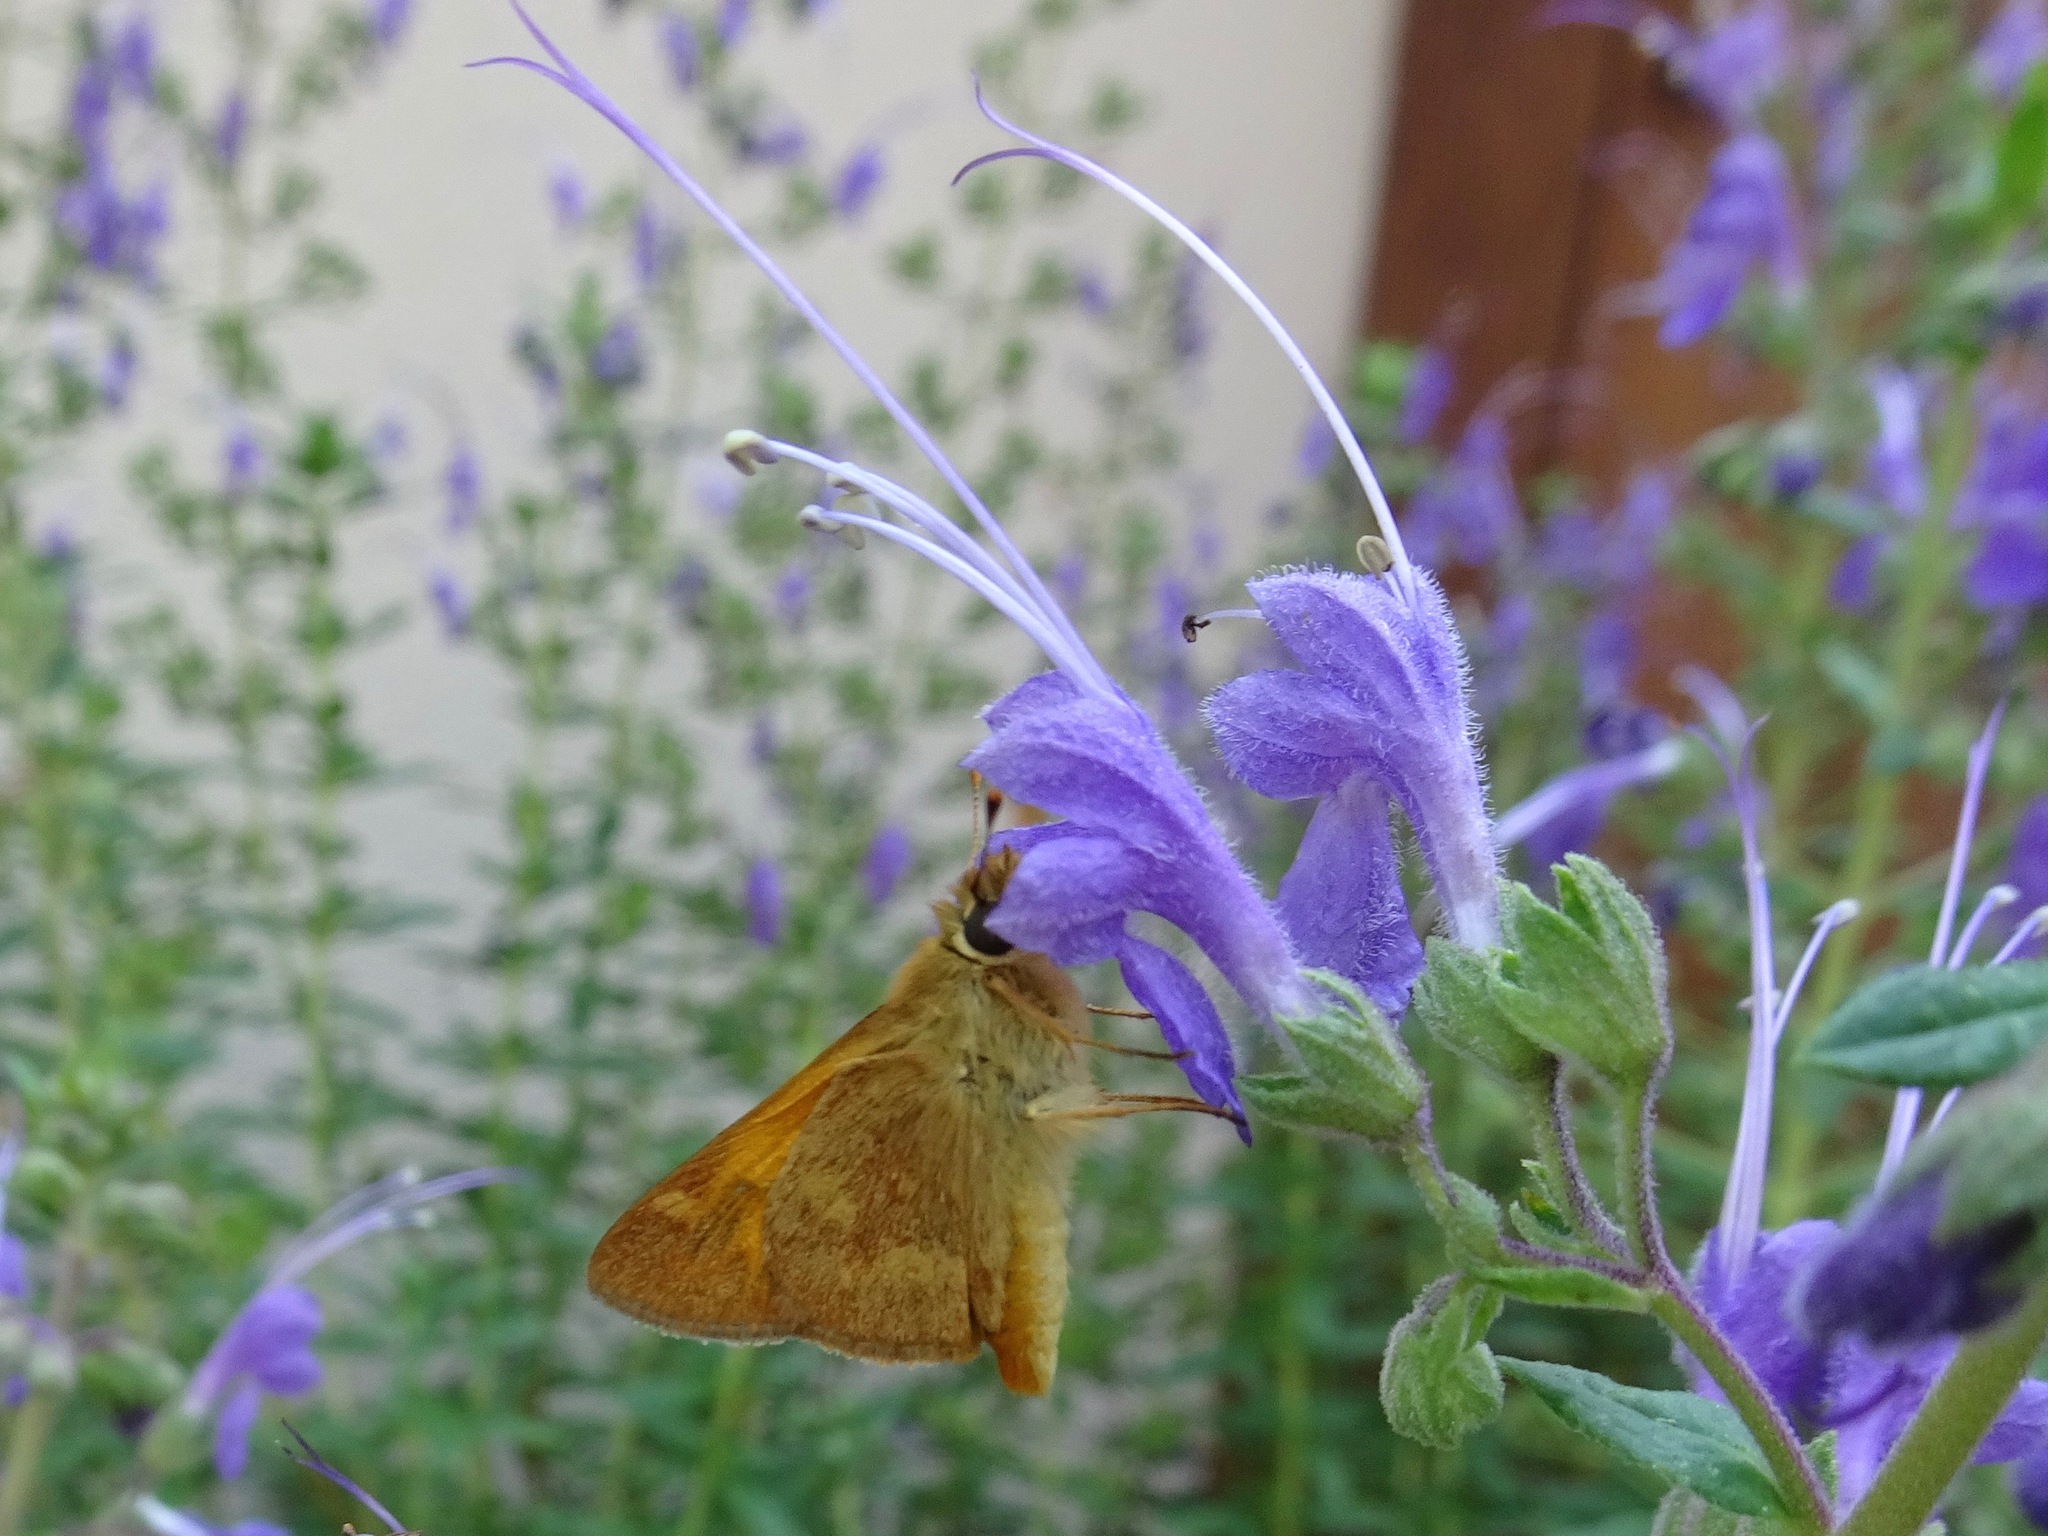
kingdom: Animalia
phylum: Arthropoda
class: Insecta
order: Lepidoptera
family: Hesperiidae
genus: Ochlodes
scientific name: Ochlodes sylvanoides
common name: Woodland skipper
